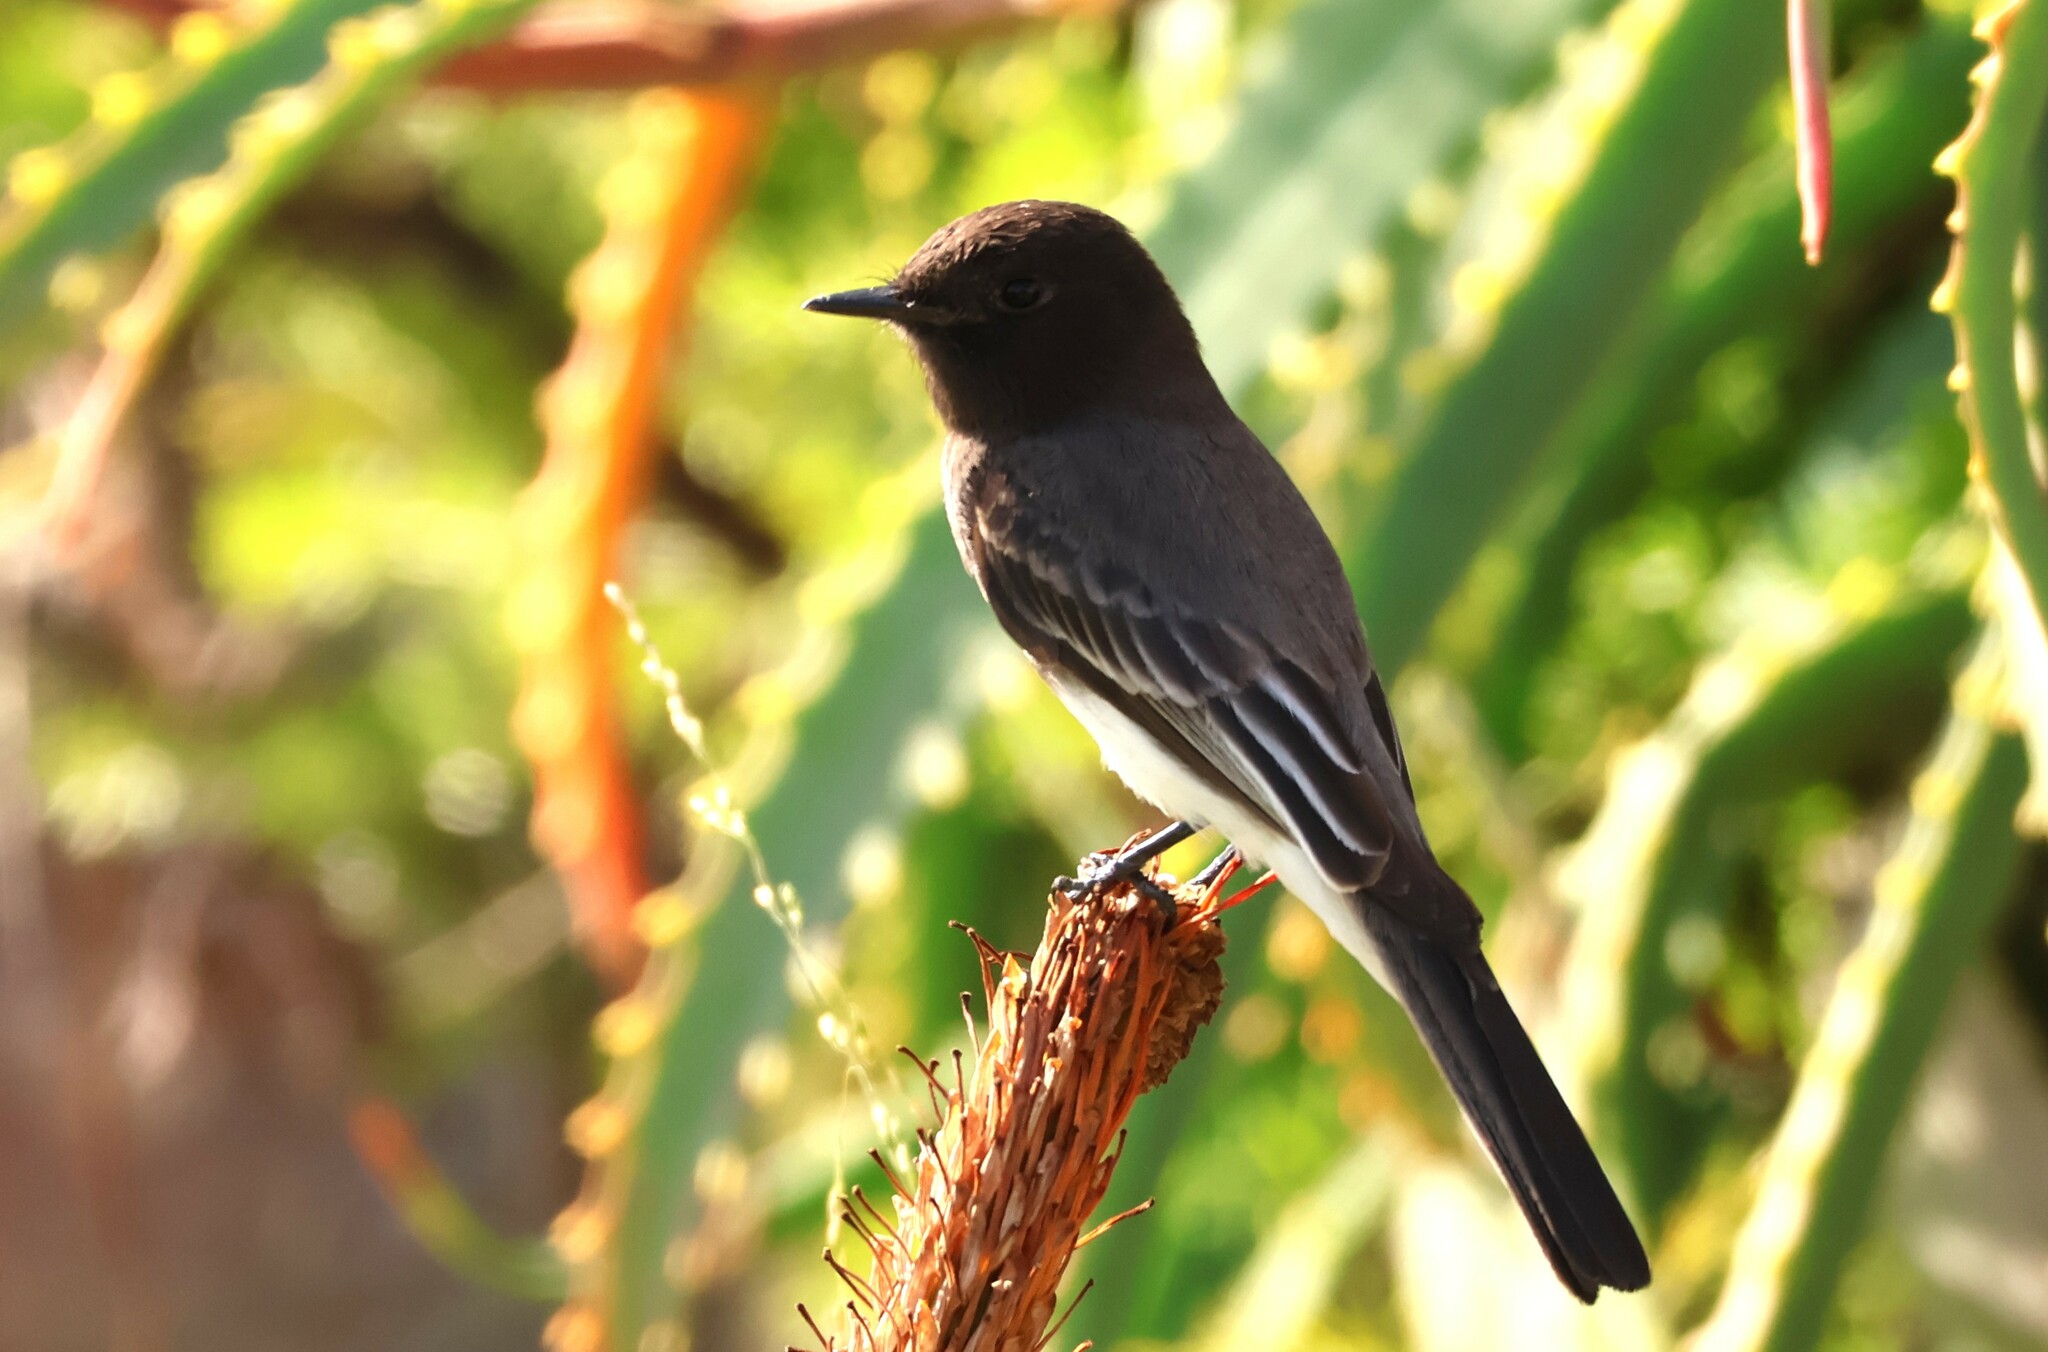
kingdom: Animalia
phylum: Chordata
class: Aves
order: Passeriformes
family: Tyrannidae
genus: Sayornis
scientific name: Sayornis nigricans
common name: Black phoebe
